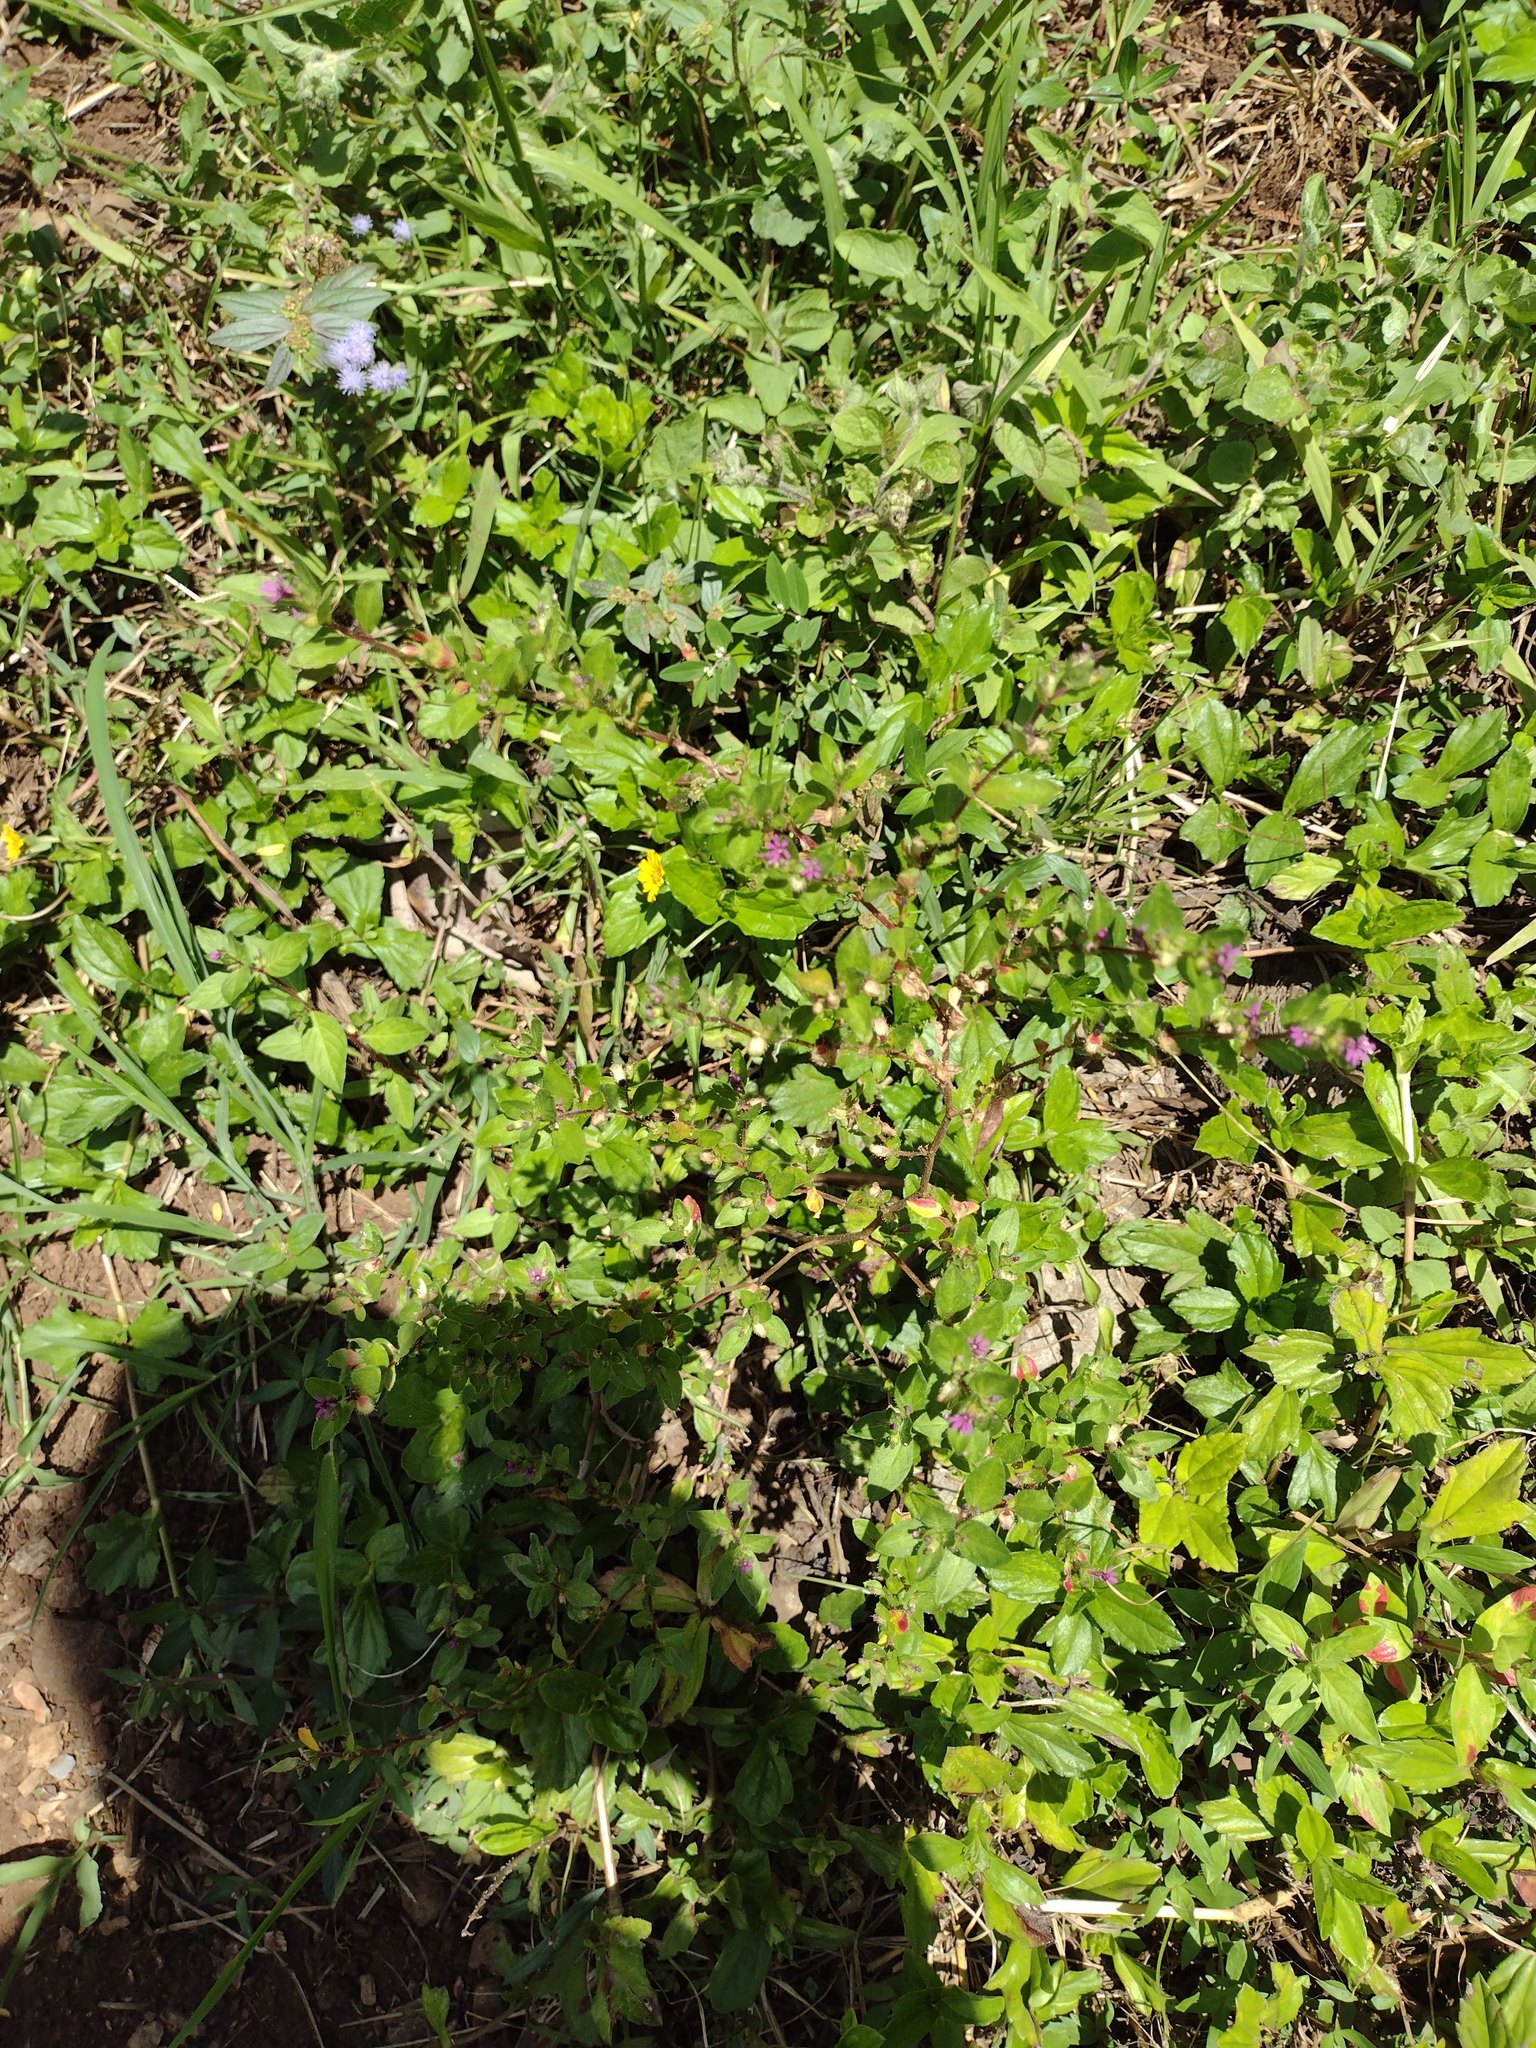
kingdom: Plantae
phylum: Tracheophyta
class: Magnoliopsida
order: Myrtales
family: Lythraceae
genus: Cuphea
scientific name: Cuphea carthagenensis
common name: Colombian waxweed
